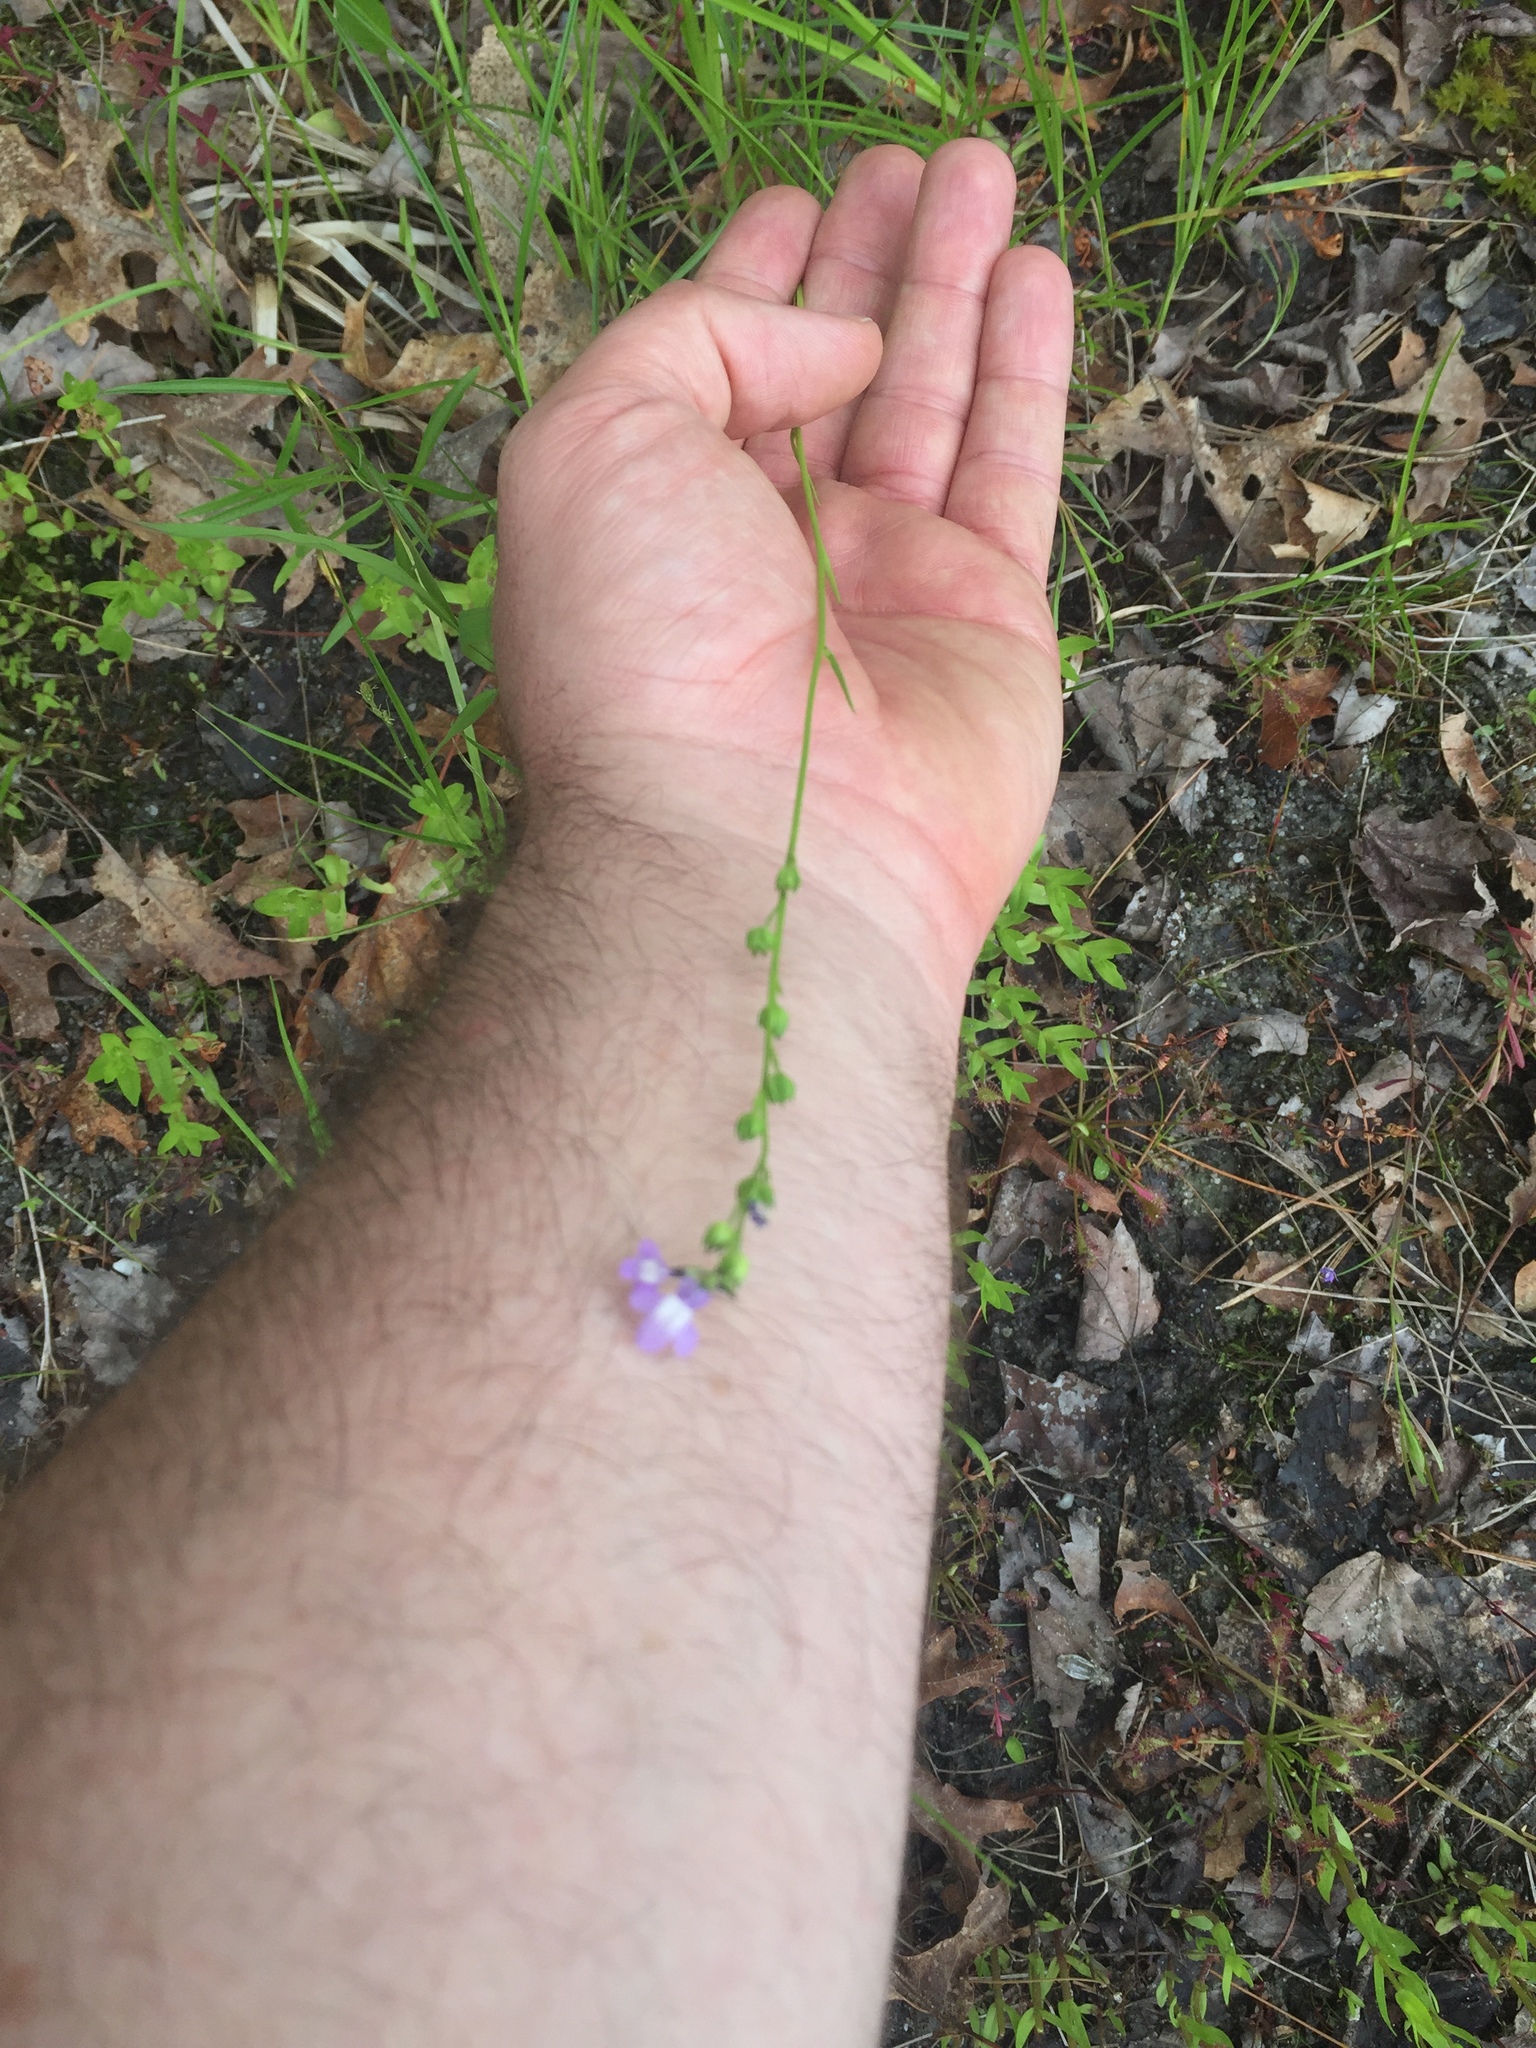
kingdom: Plantae
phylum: Tracheophyta
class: Magnoliopsida
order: Lamiales
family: Plantaginaceae
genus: Nuttallanthus
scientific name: Nuttallanthus canadensis
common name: Blue toadflax
